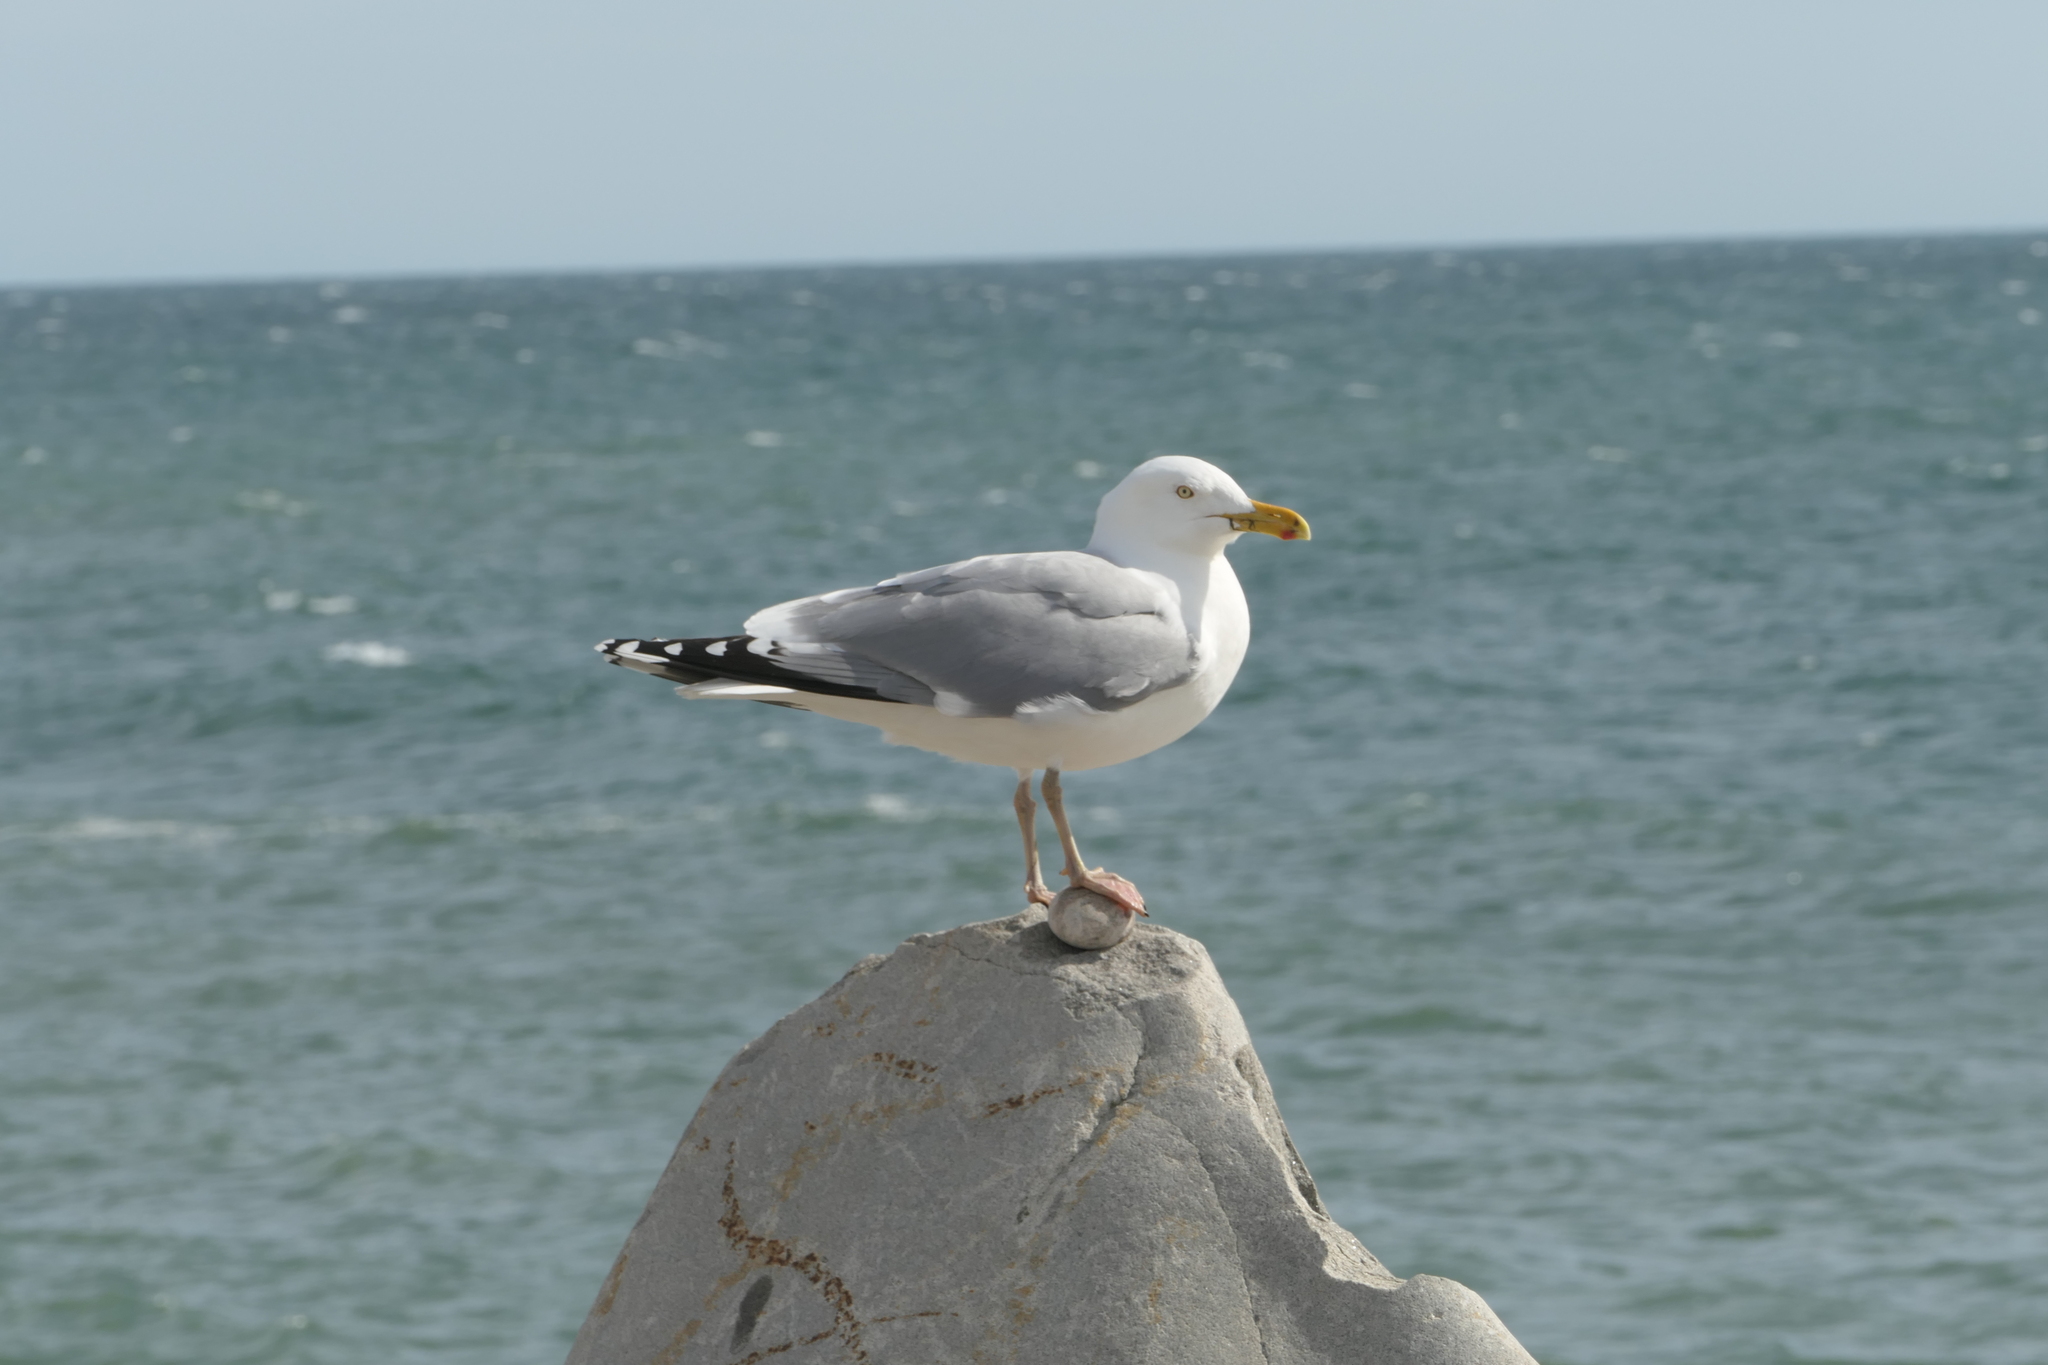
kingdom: Animalia
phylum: Chordata
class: Aves
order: Charadriiformes
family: Laridae
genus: Larus
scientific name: Larus argentatus
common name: Herring gull
